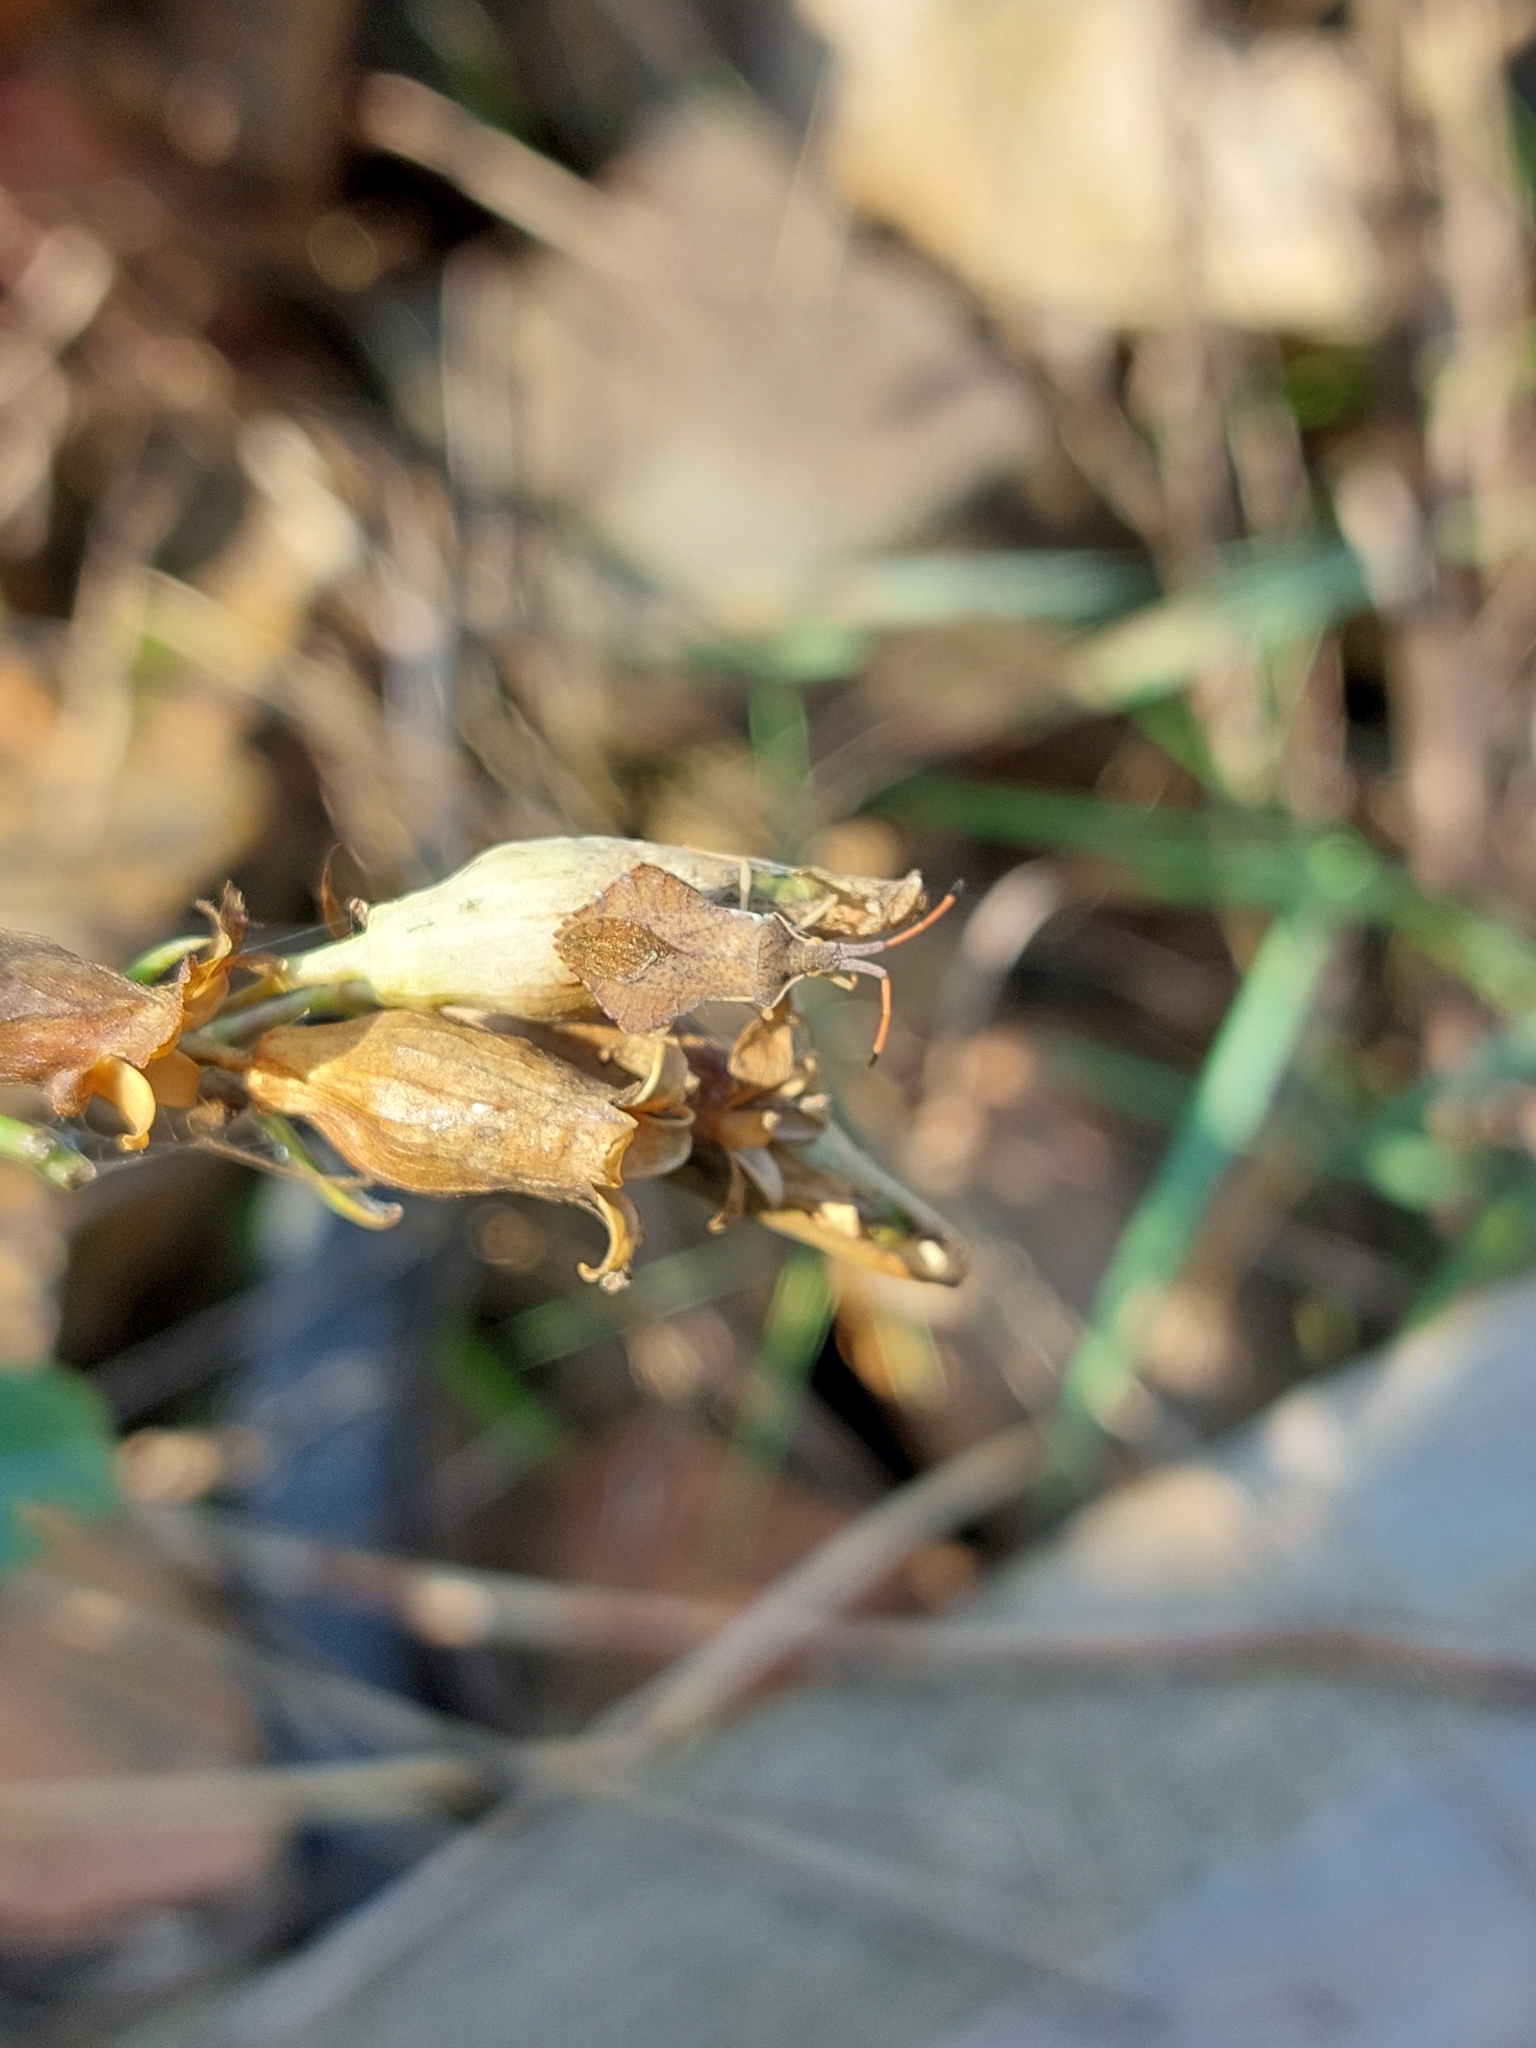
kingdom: Animalia
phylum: Arthropoda
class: Insecta
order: Hemiptera
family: Coreidae
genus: Syromastus
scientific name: Syromastus rhombeus
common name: Rhombic leatherbug
